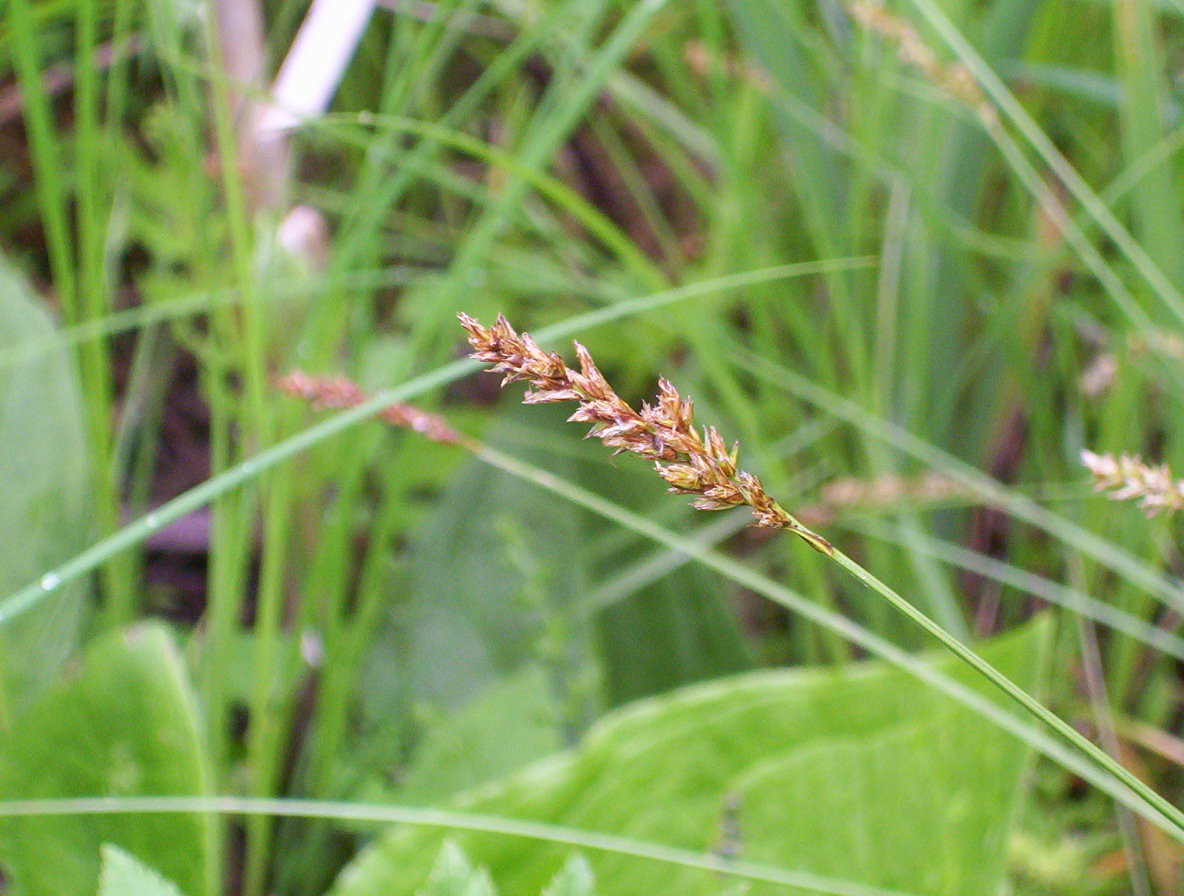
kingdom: Plantae
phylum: Tracheophyta
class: Liliopsida
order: Poales
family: Cyperaceae
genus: Carex
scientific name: Carex prairea
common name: Prairie sedge
